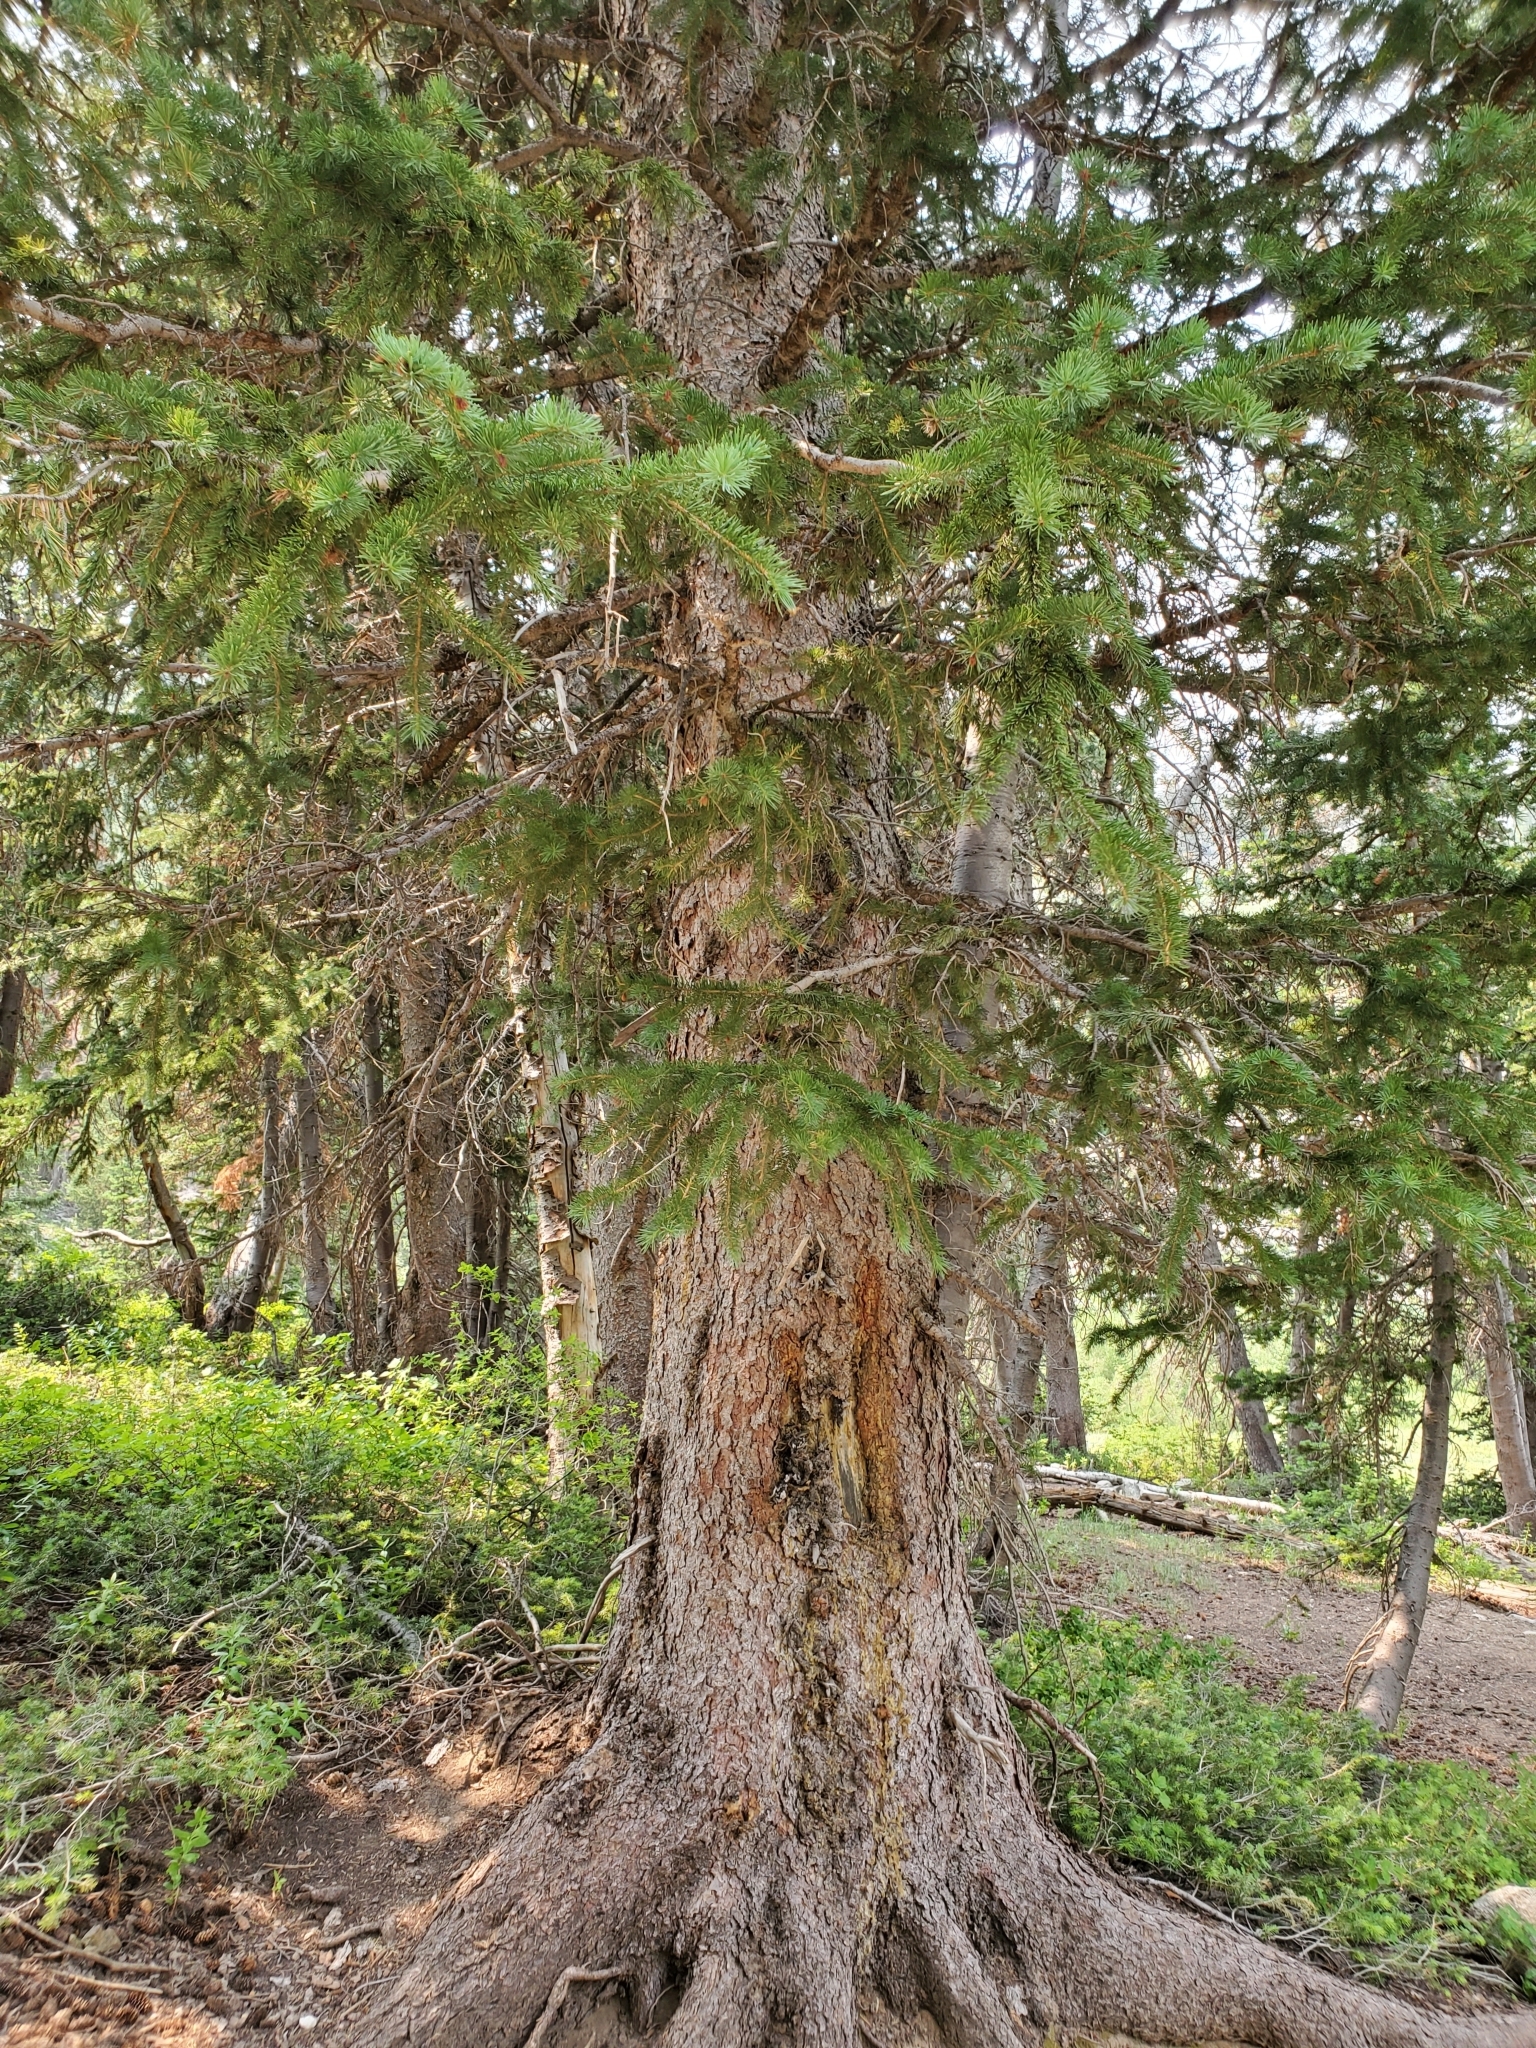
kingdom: Plantae
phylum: Tracheophyta
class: Pinopsida
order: Pinales
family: Pinaceae
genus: Picea
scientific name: Picea engelmannii
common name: Engelmann spruce
